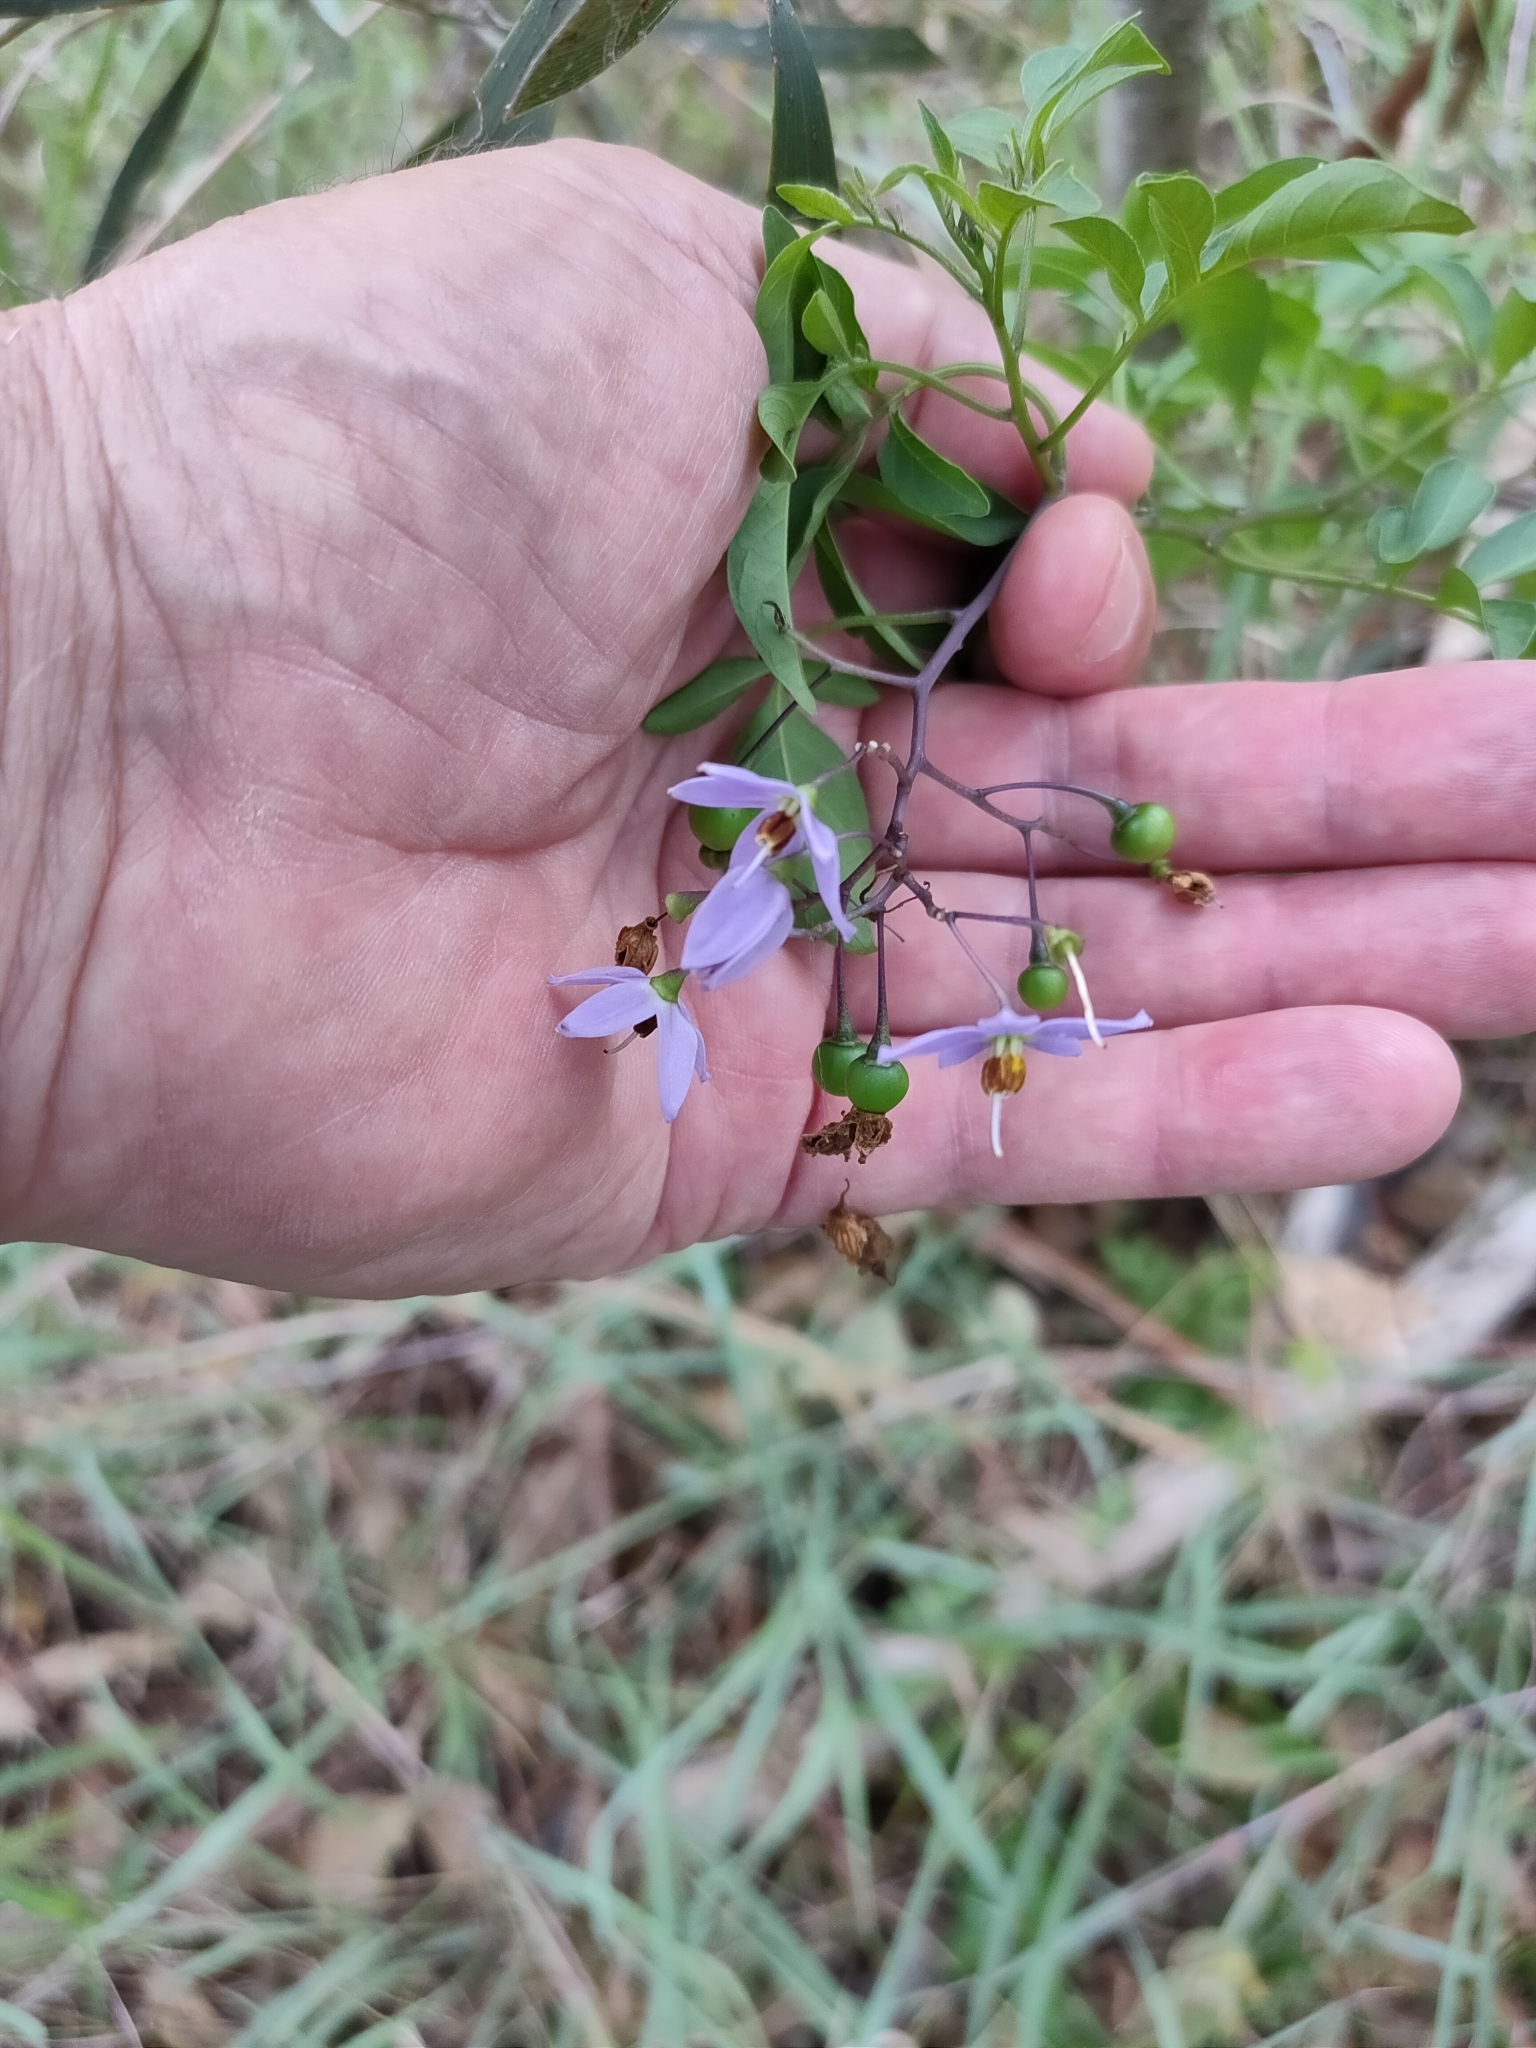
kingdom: Plantae
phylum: Tracheophyta
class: Magnoliopsida
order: Solanales
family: Solanaceae
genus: Solanum
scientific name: Solanum seaforthianum
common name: Brazilian nightshade
